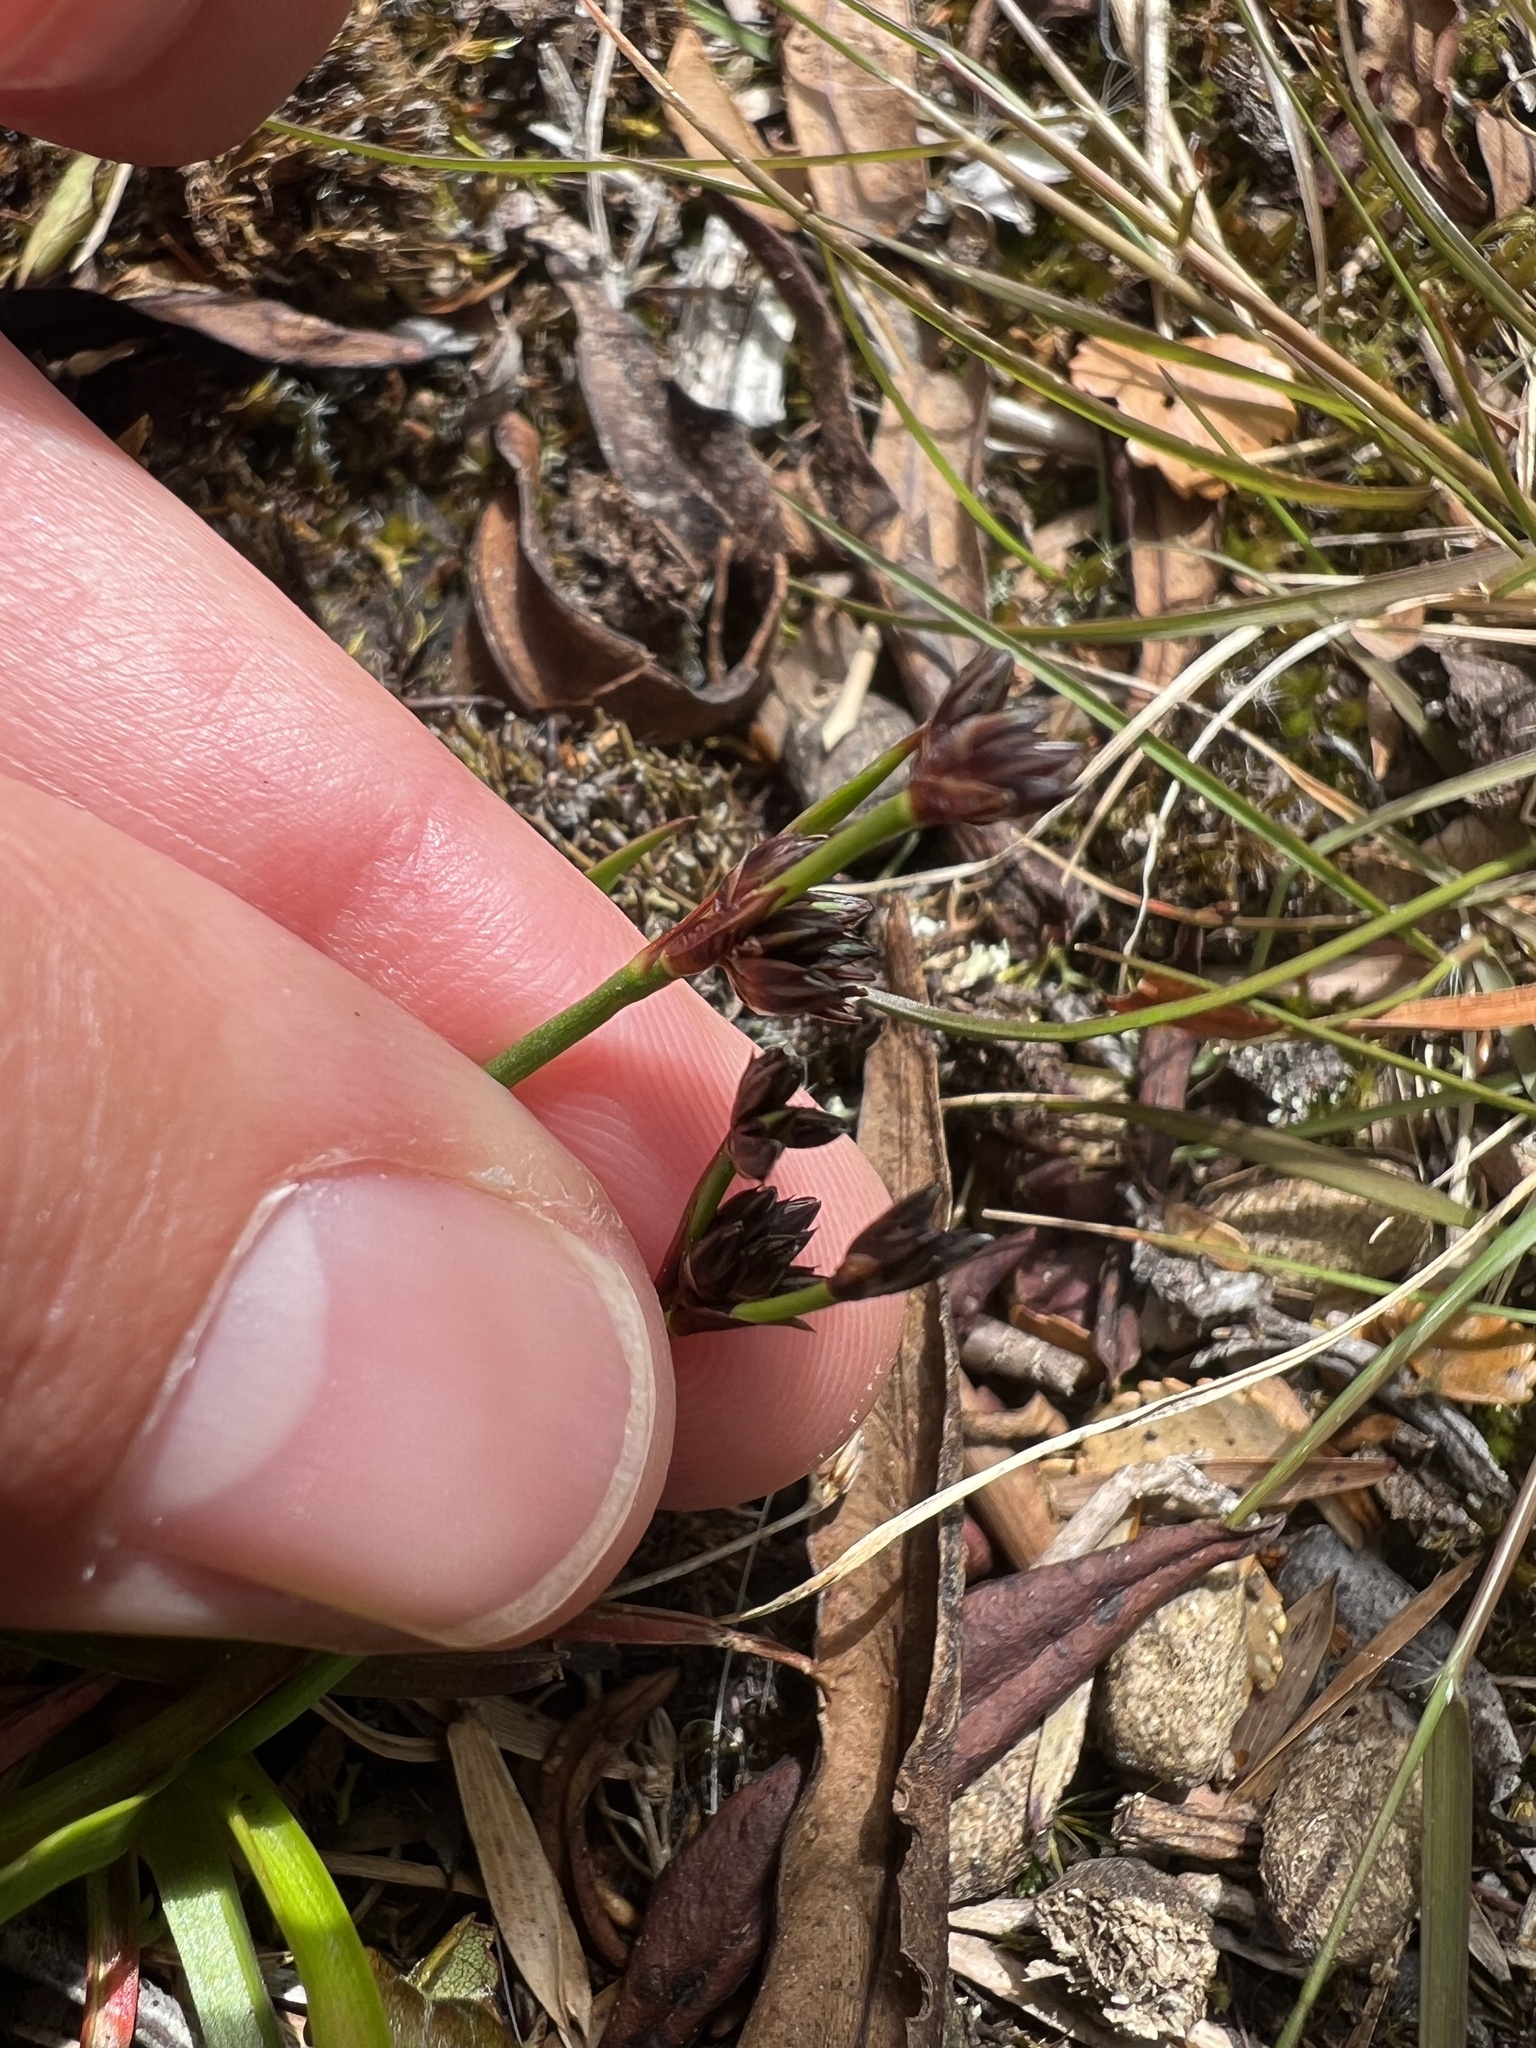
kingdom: Plantae
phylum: Tracheophyta
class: Liliopsida
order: Poales
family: Juncaceae
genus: Juncus
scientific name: Juncus planifolius
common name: Broadleaf rush
